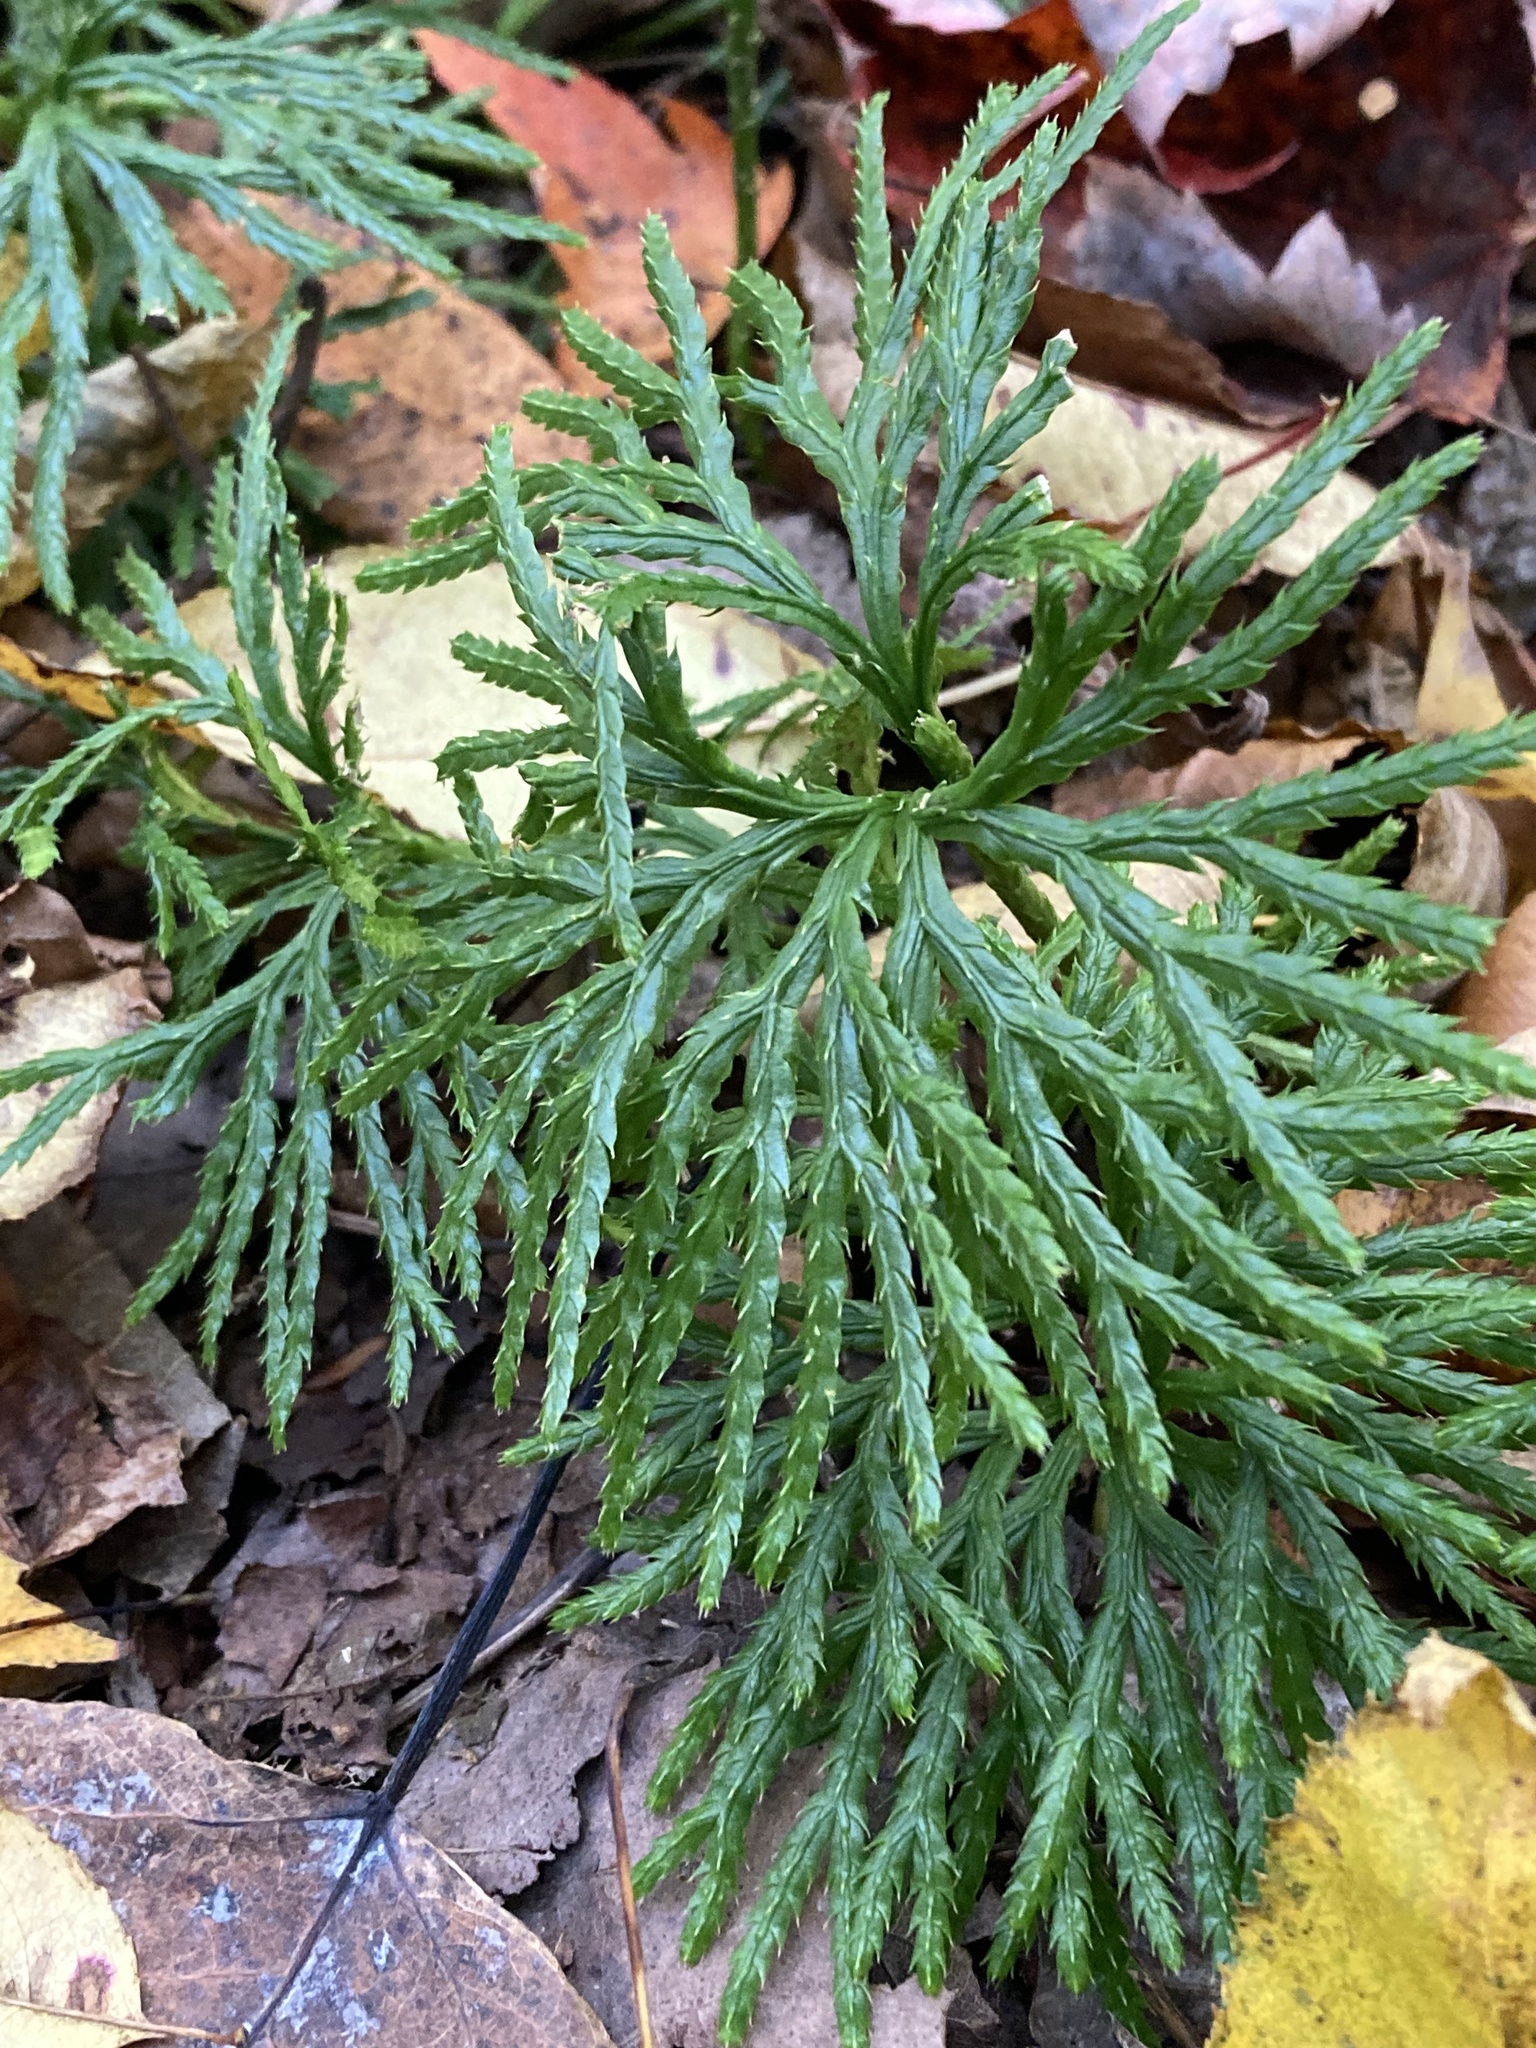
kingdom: Plantae
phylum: Tracheophyta
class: Lycopodiopsida
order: Lycopodiales
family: Lycopodiaceae
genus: Diphasiastrum
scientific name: Diphasiastrum digitatum
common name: Southern running-pine
